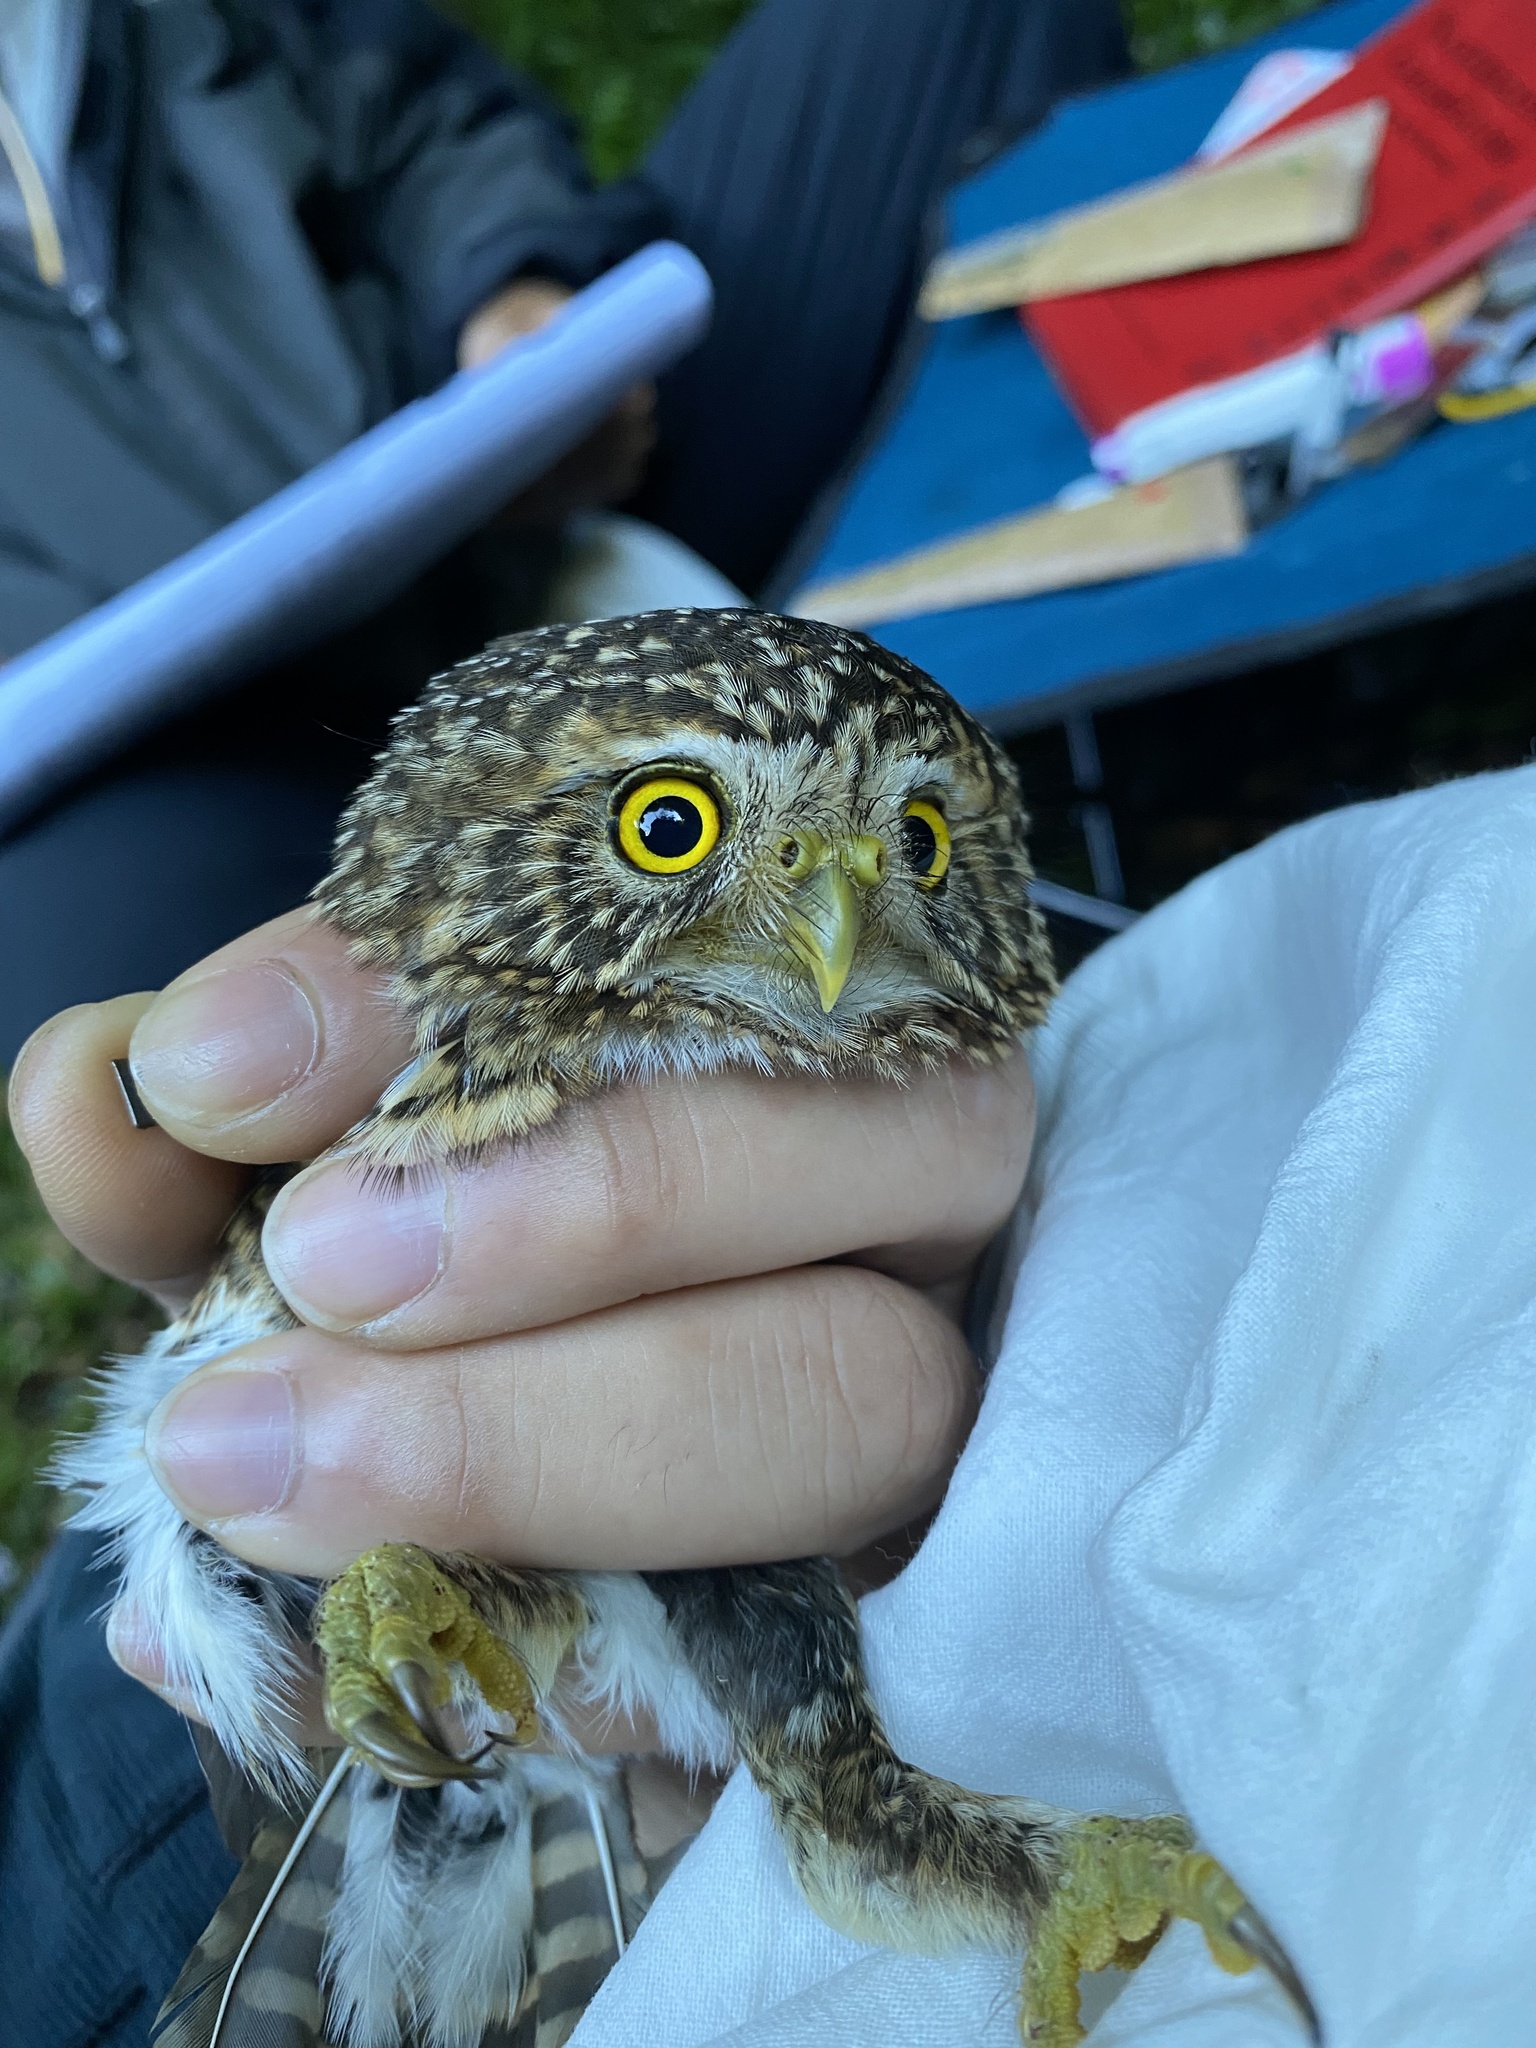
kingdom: Animalia
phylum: Chordata
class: Aves
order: Strigiformes
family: Strigidae
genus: Glaucidium
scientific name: Glaucidium brodiei
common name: Collared owlet
